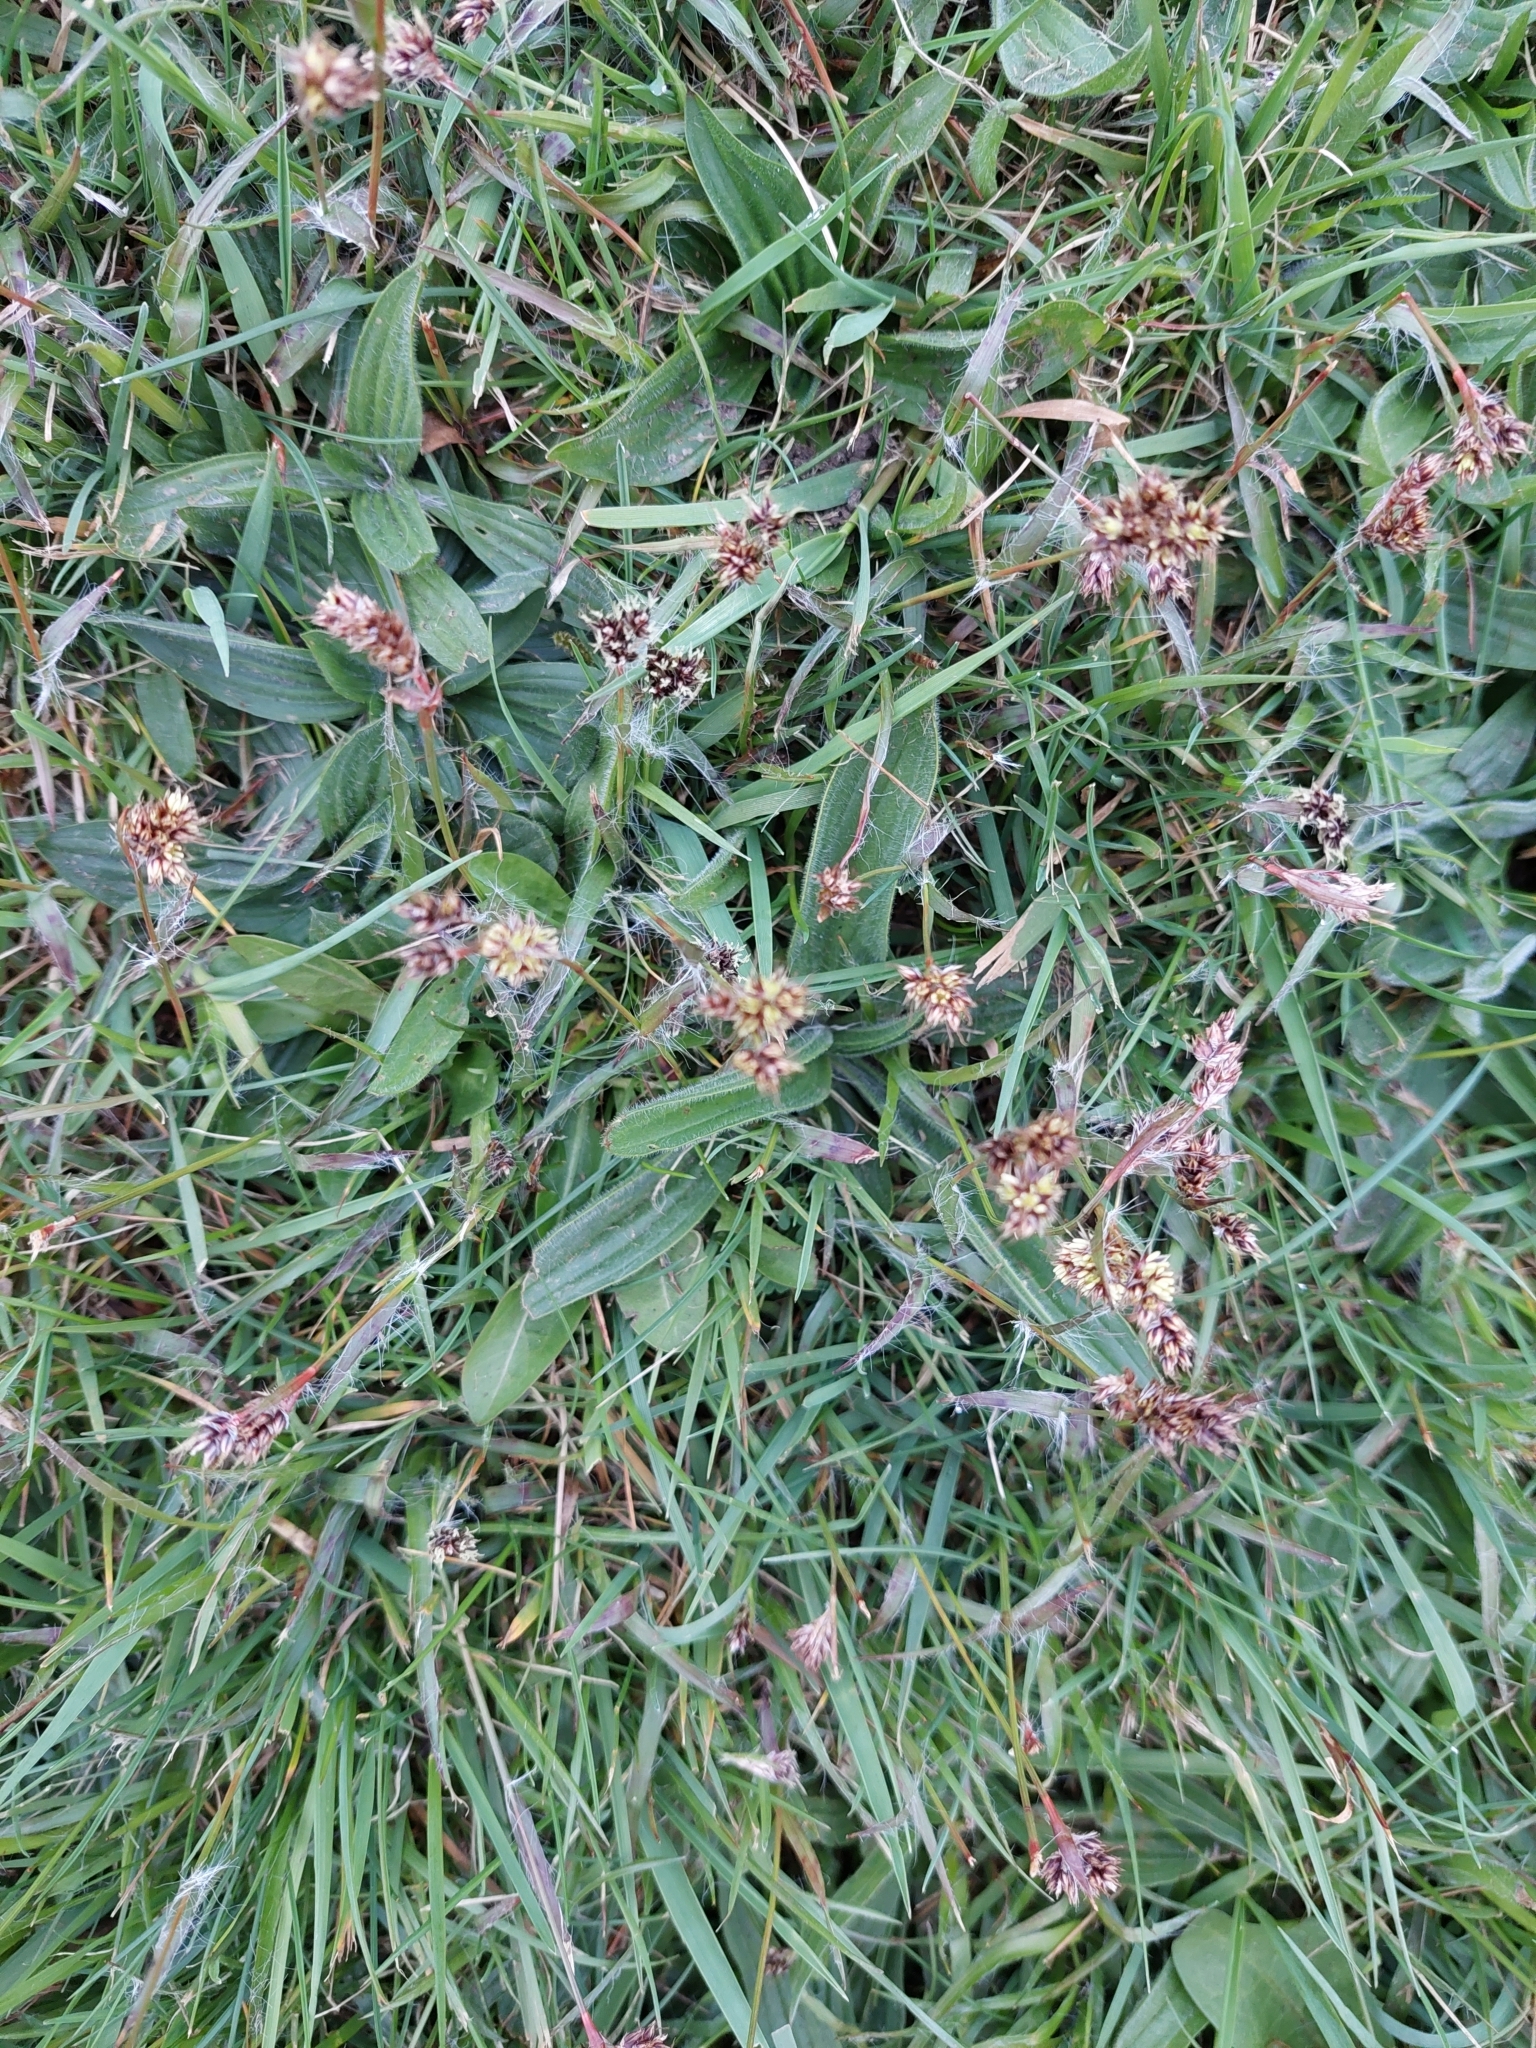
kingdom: Plantae
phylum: Tracheophyta
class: Liliopsida
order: Poales
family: Juncaceae
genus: Luzula
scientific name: Luzula campestris
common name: Field wood-rush
